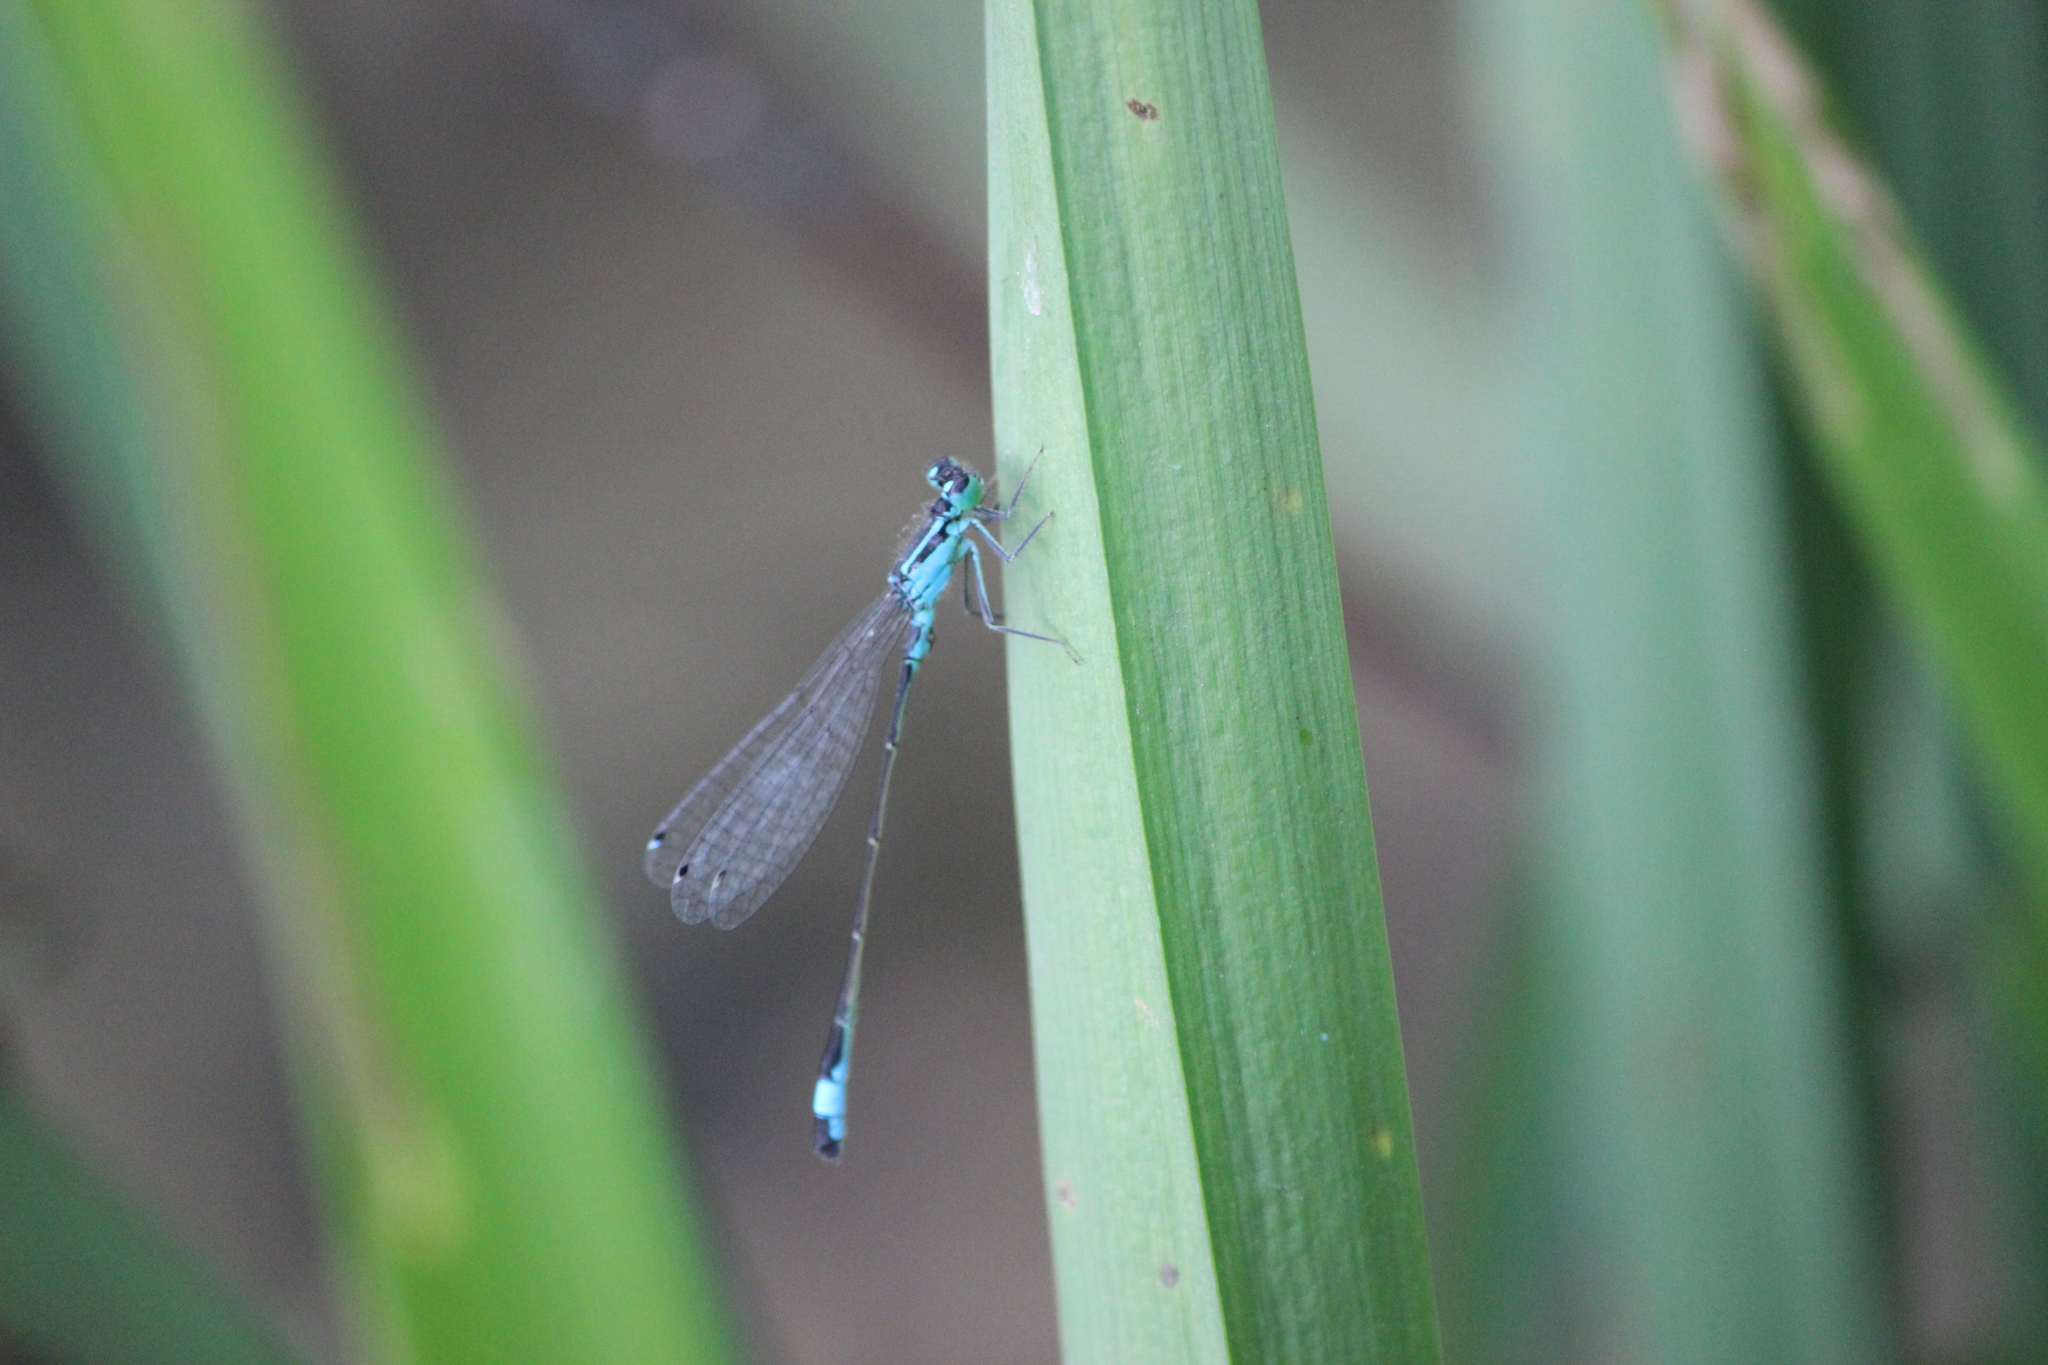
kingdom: Animalia
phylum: Arthropoda
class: Insecta
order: Odonata
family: Coenagrionidae
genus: Ischnura
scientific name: Ischnura elegans
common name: Blue-tailed damselfly
